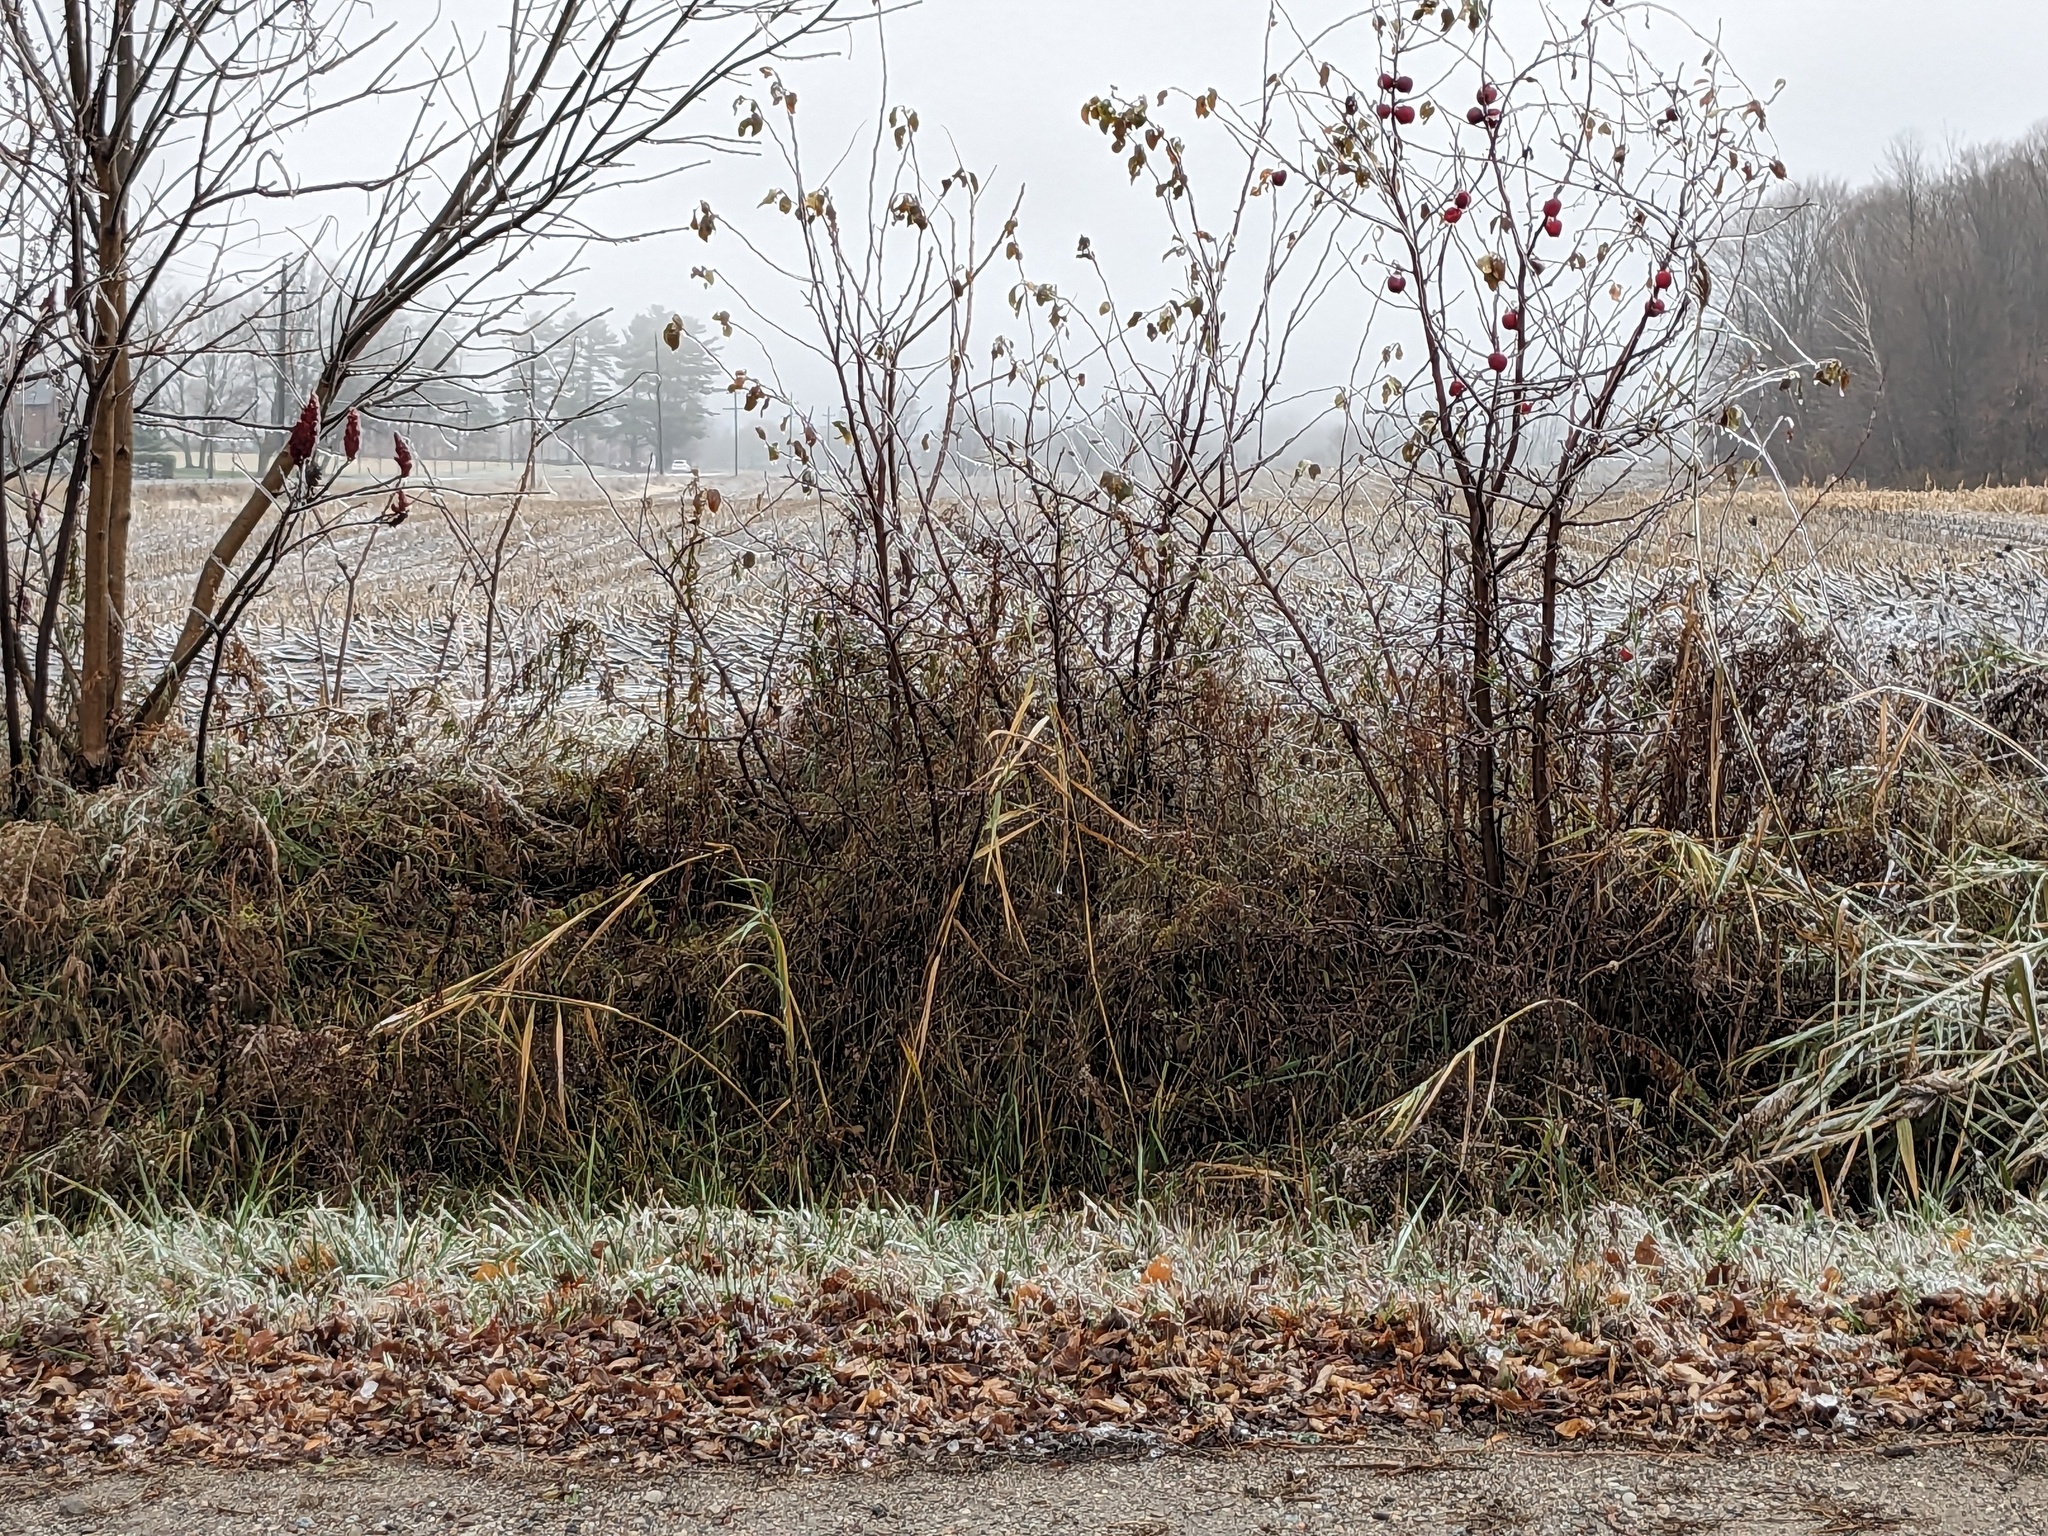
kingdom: Plantae
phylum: Tracheophyta
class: Liliopsida
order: Poales
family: Poaceae
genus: Phragmites
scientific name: Phragmites australis
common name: Common reed
